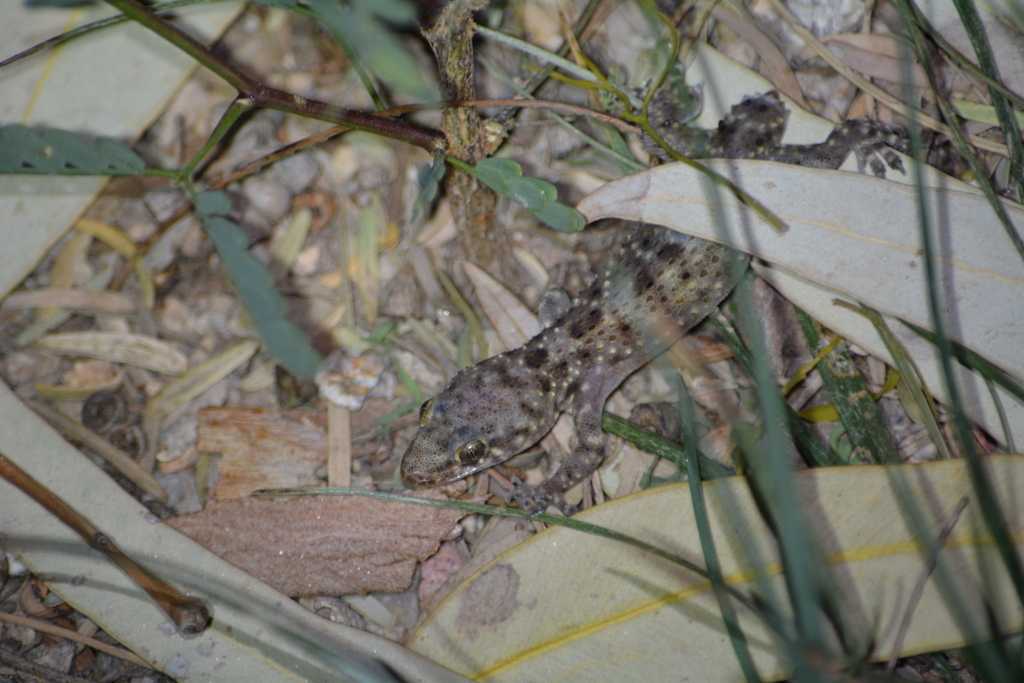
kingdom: Animalia
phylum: Chordata
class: Squamata
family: Gekkonidae
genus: Hemidactylus
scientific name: Hemidactylus turcicus
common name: Turkish gecko
